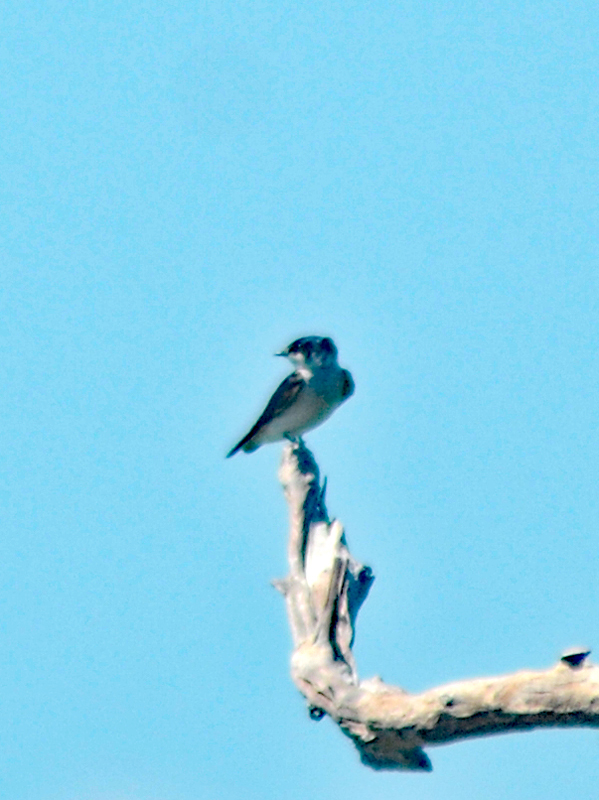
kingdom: Animalia
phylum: Chordata
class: Aves
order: Passeriformes
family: Hirundinidae
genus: Tachycineta
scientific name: Tachycineta albilinea
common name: Mangrove swallow
